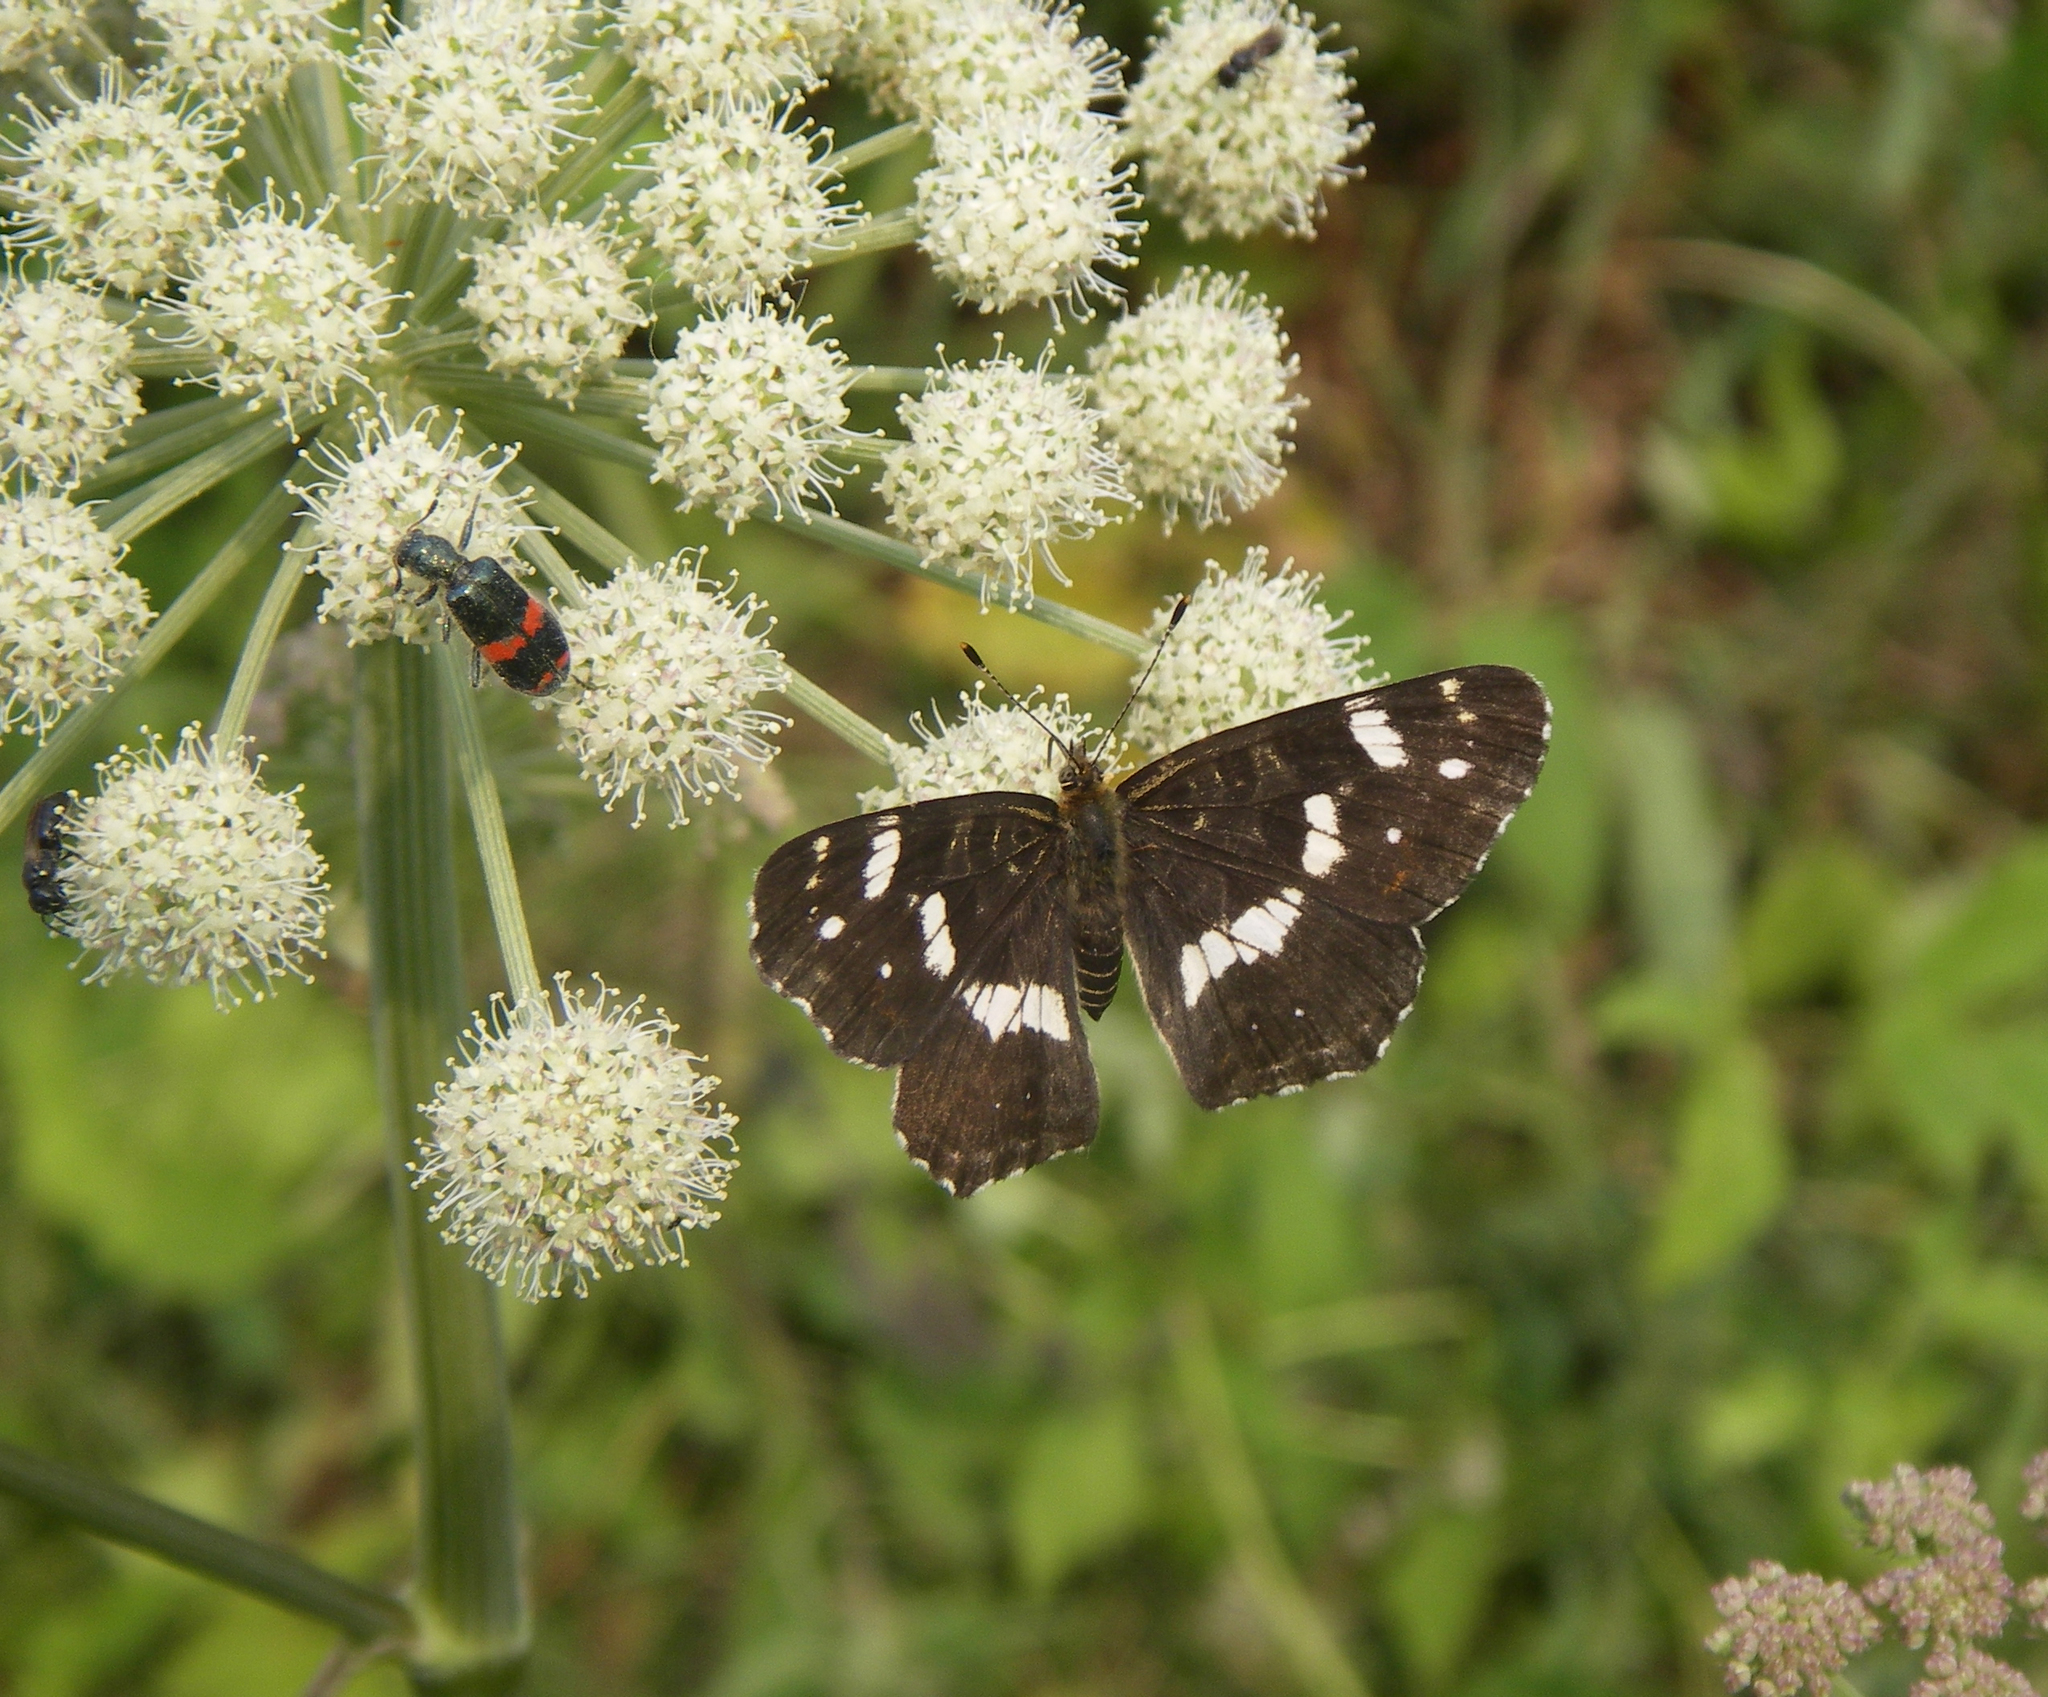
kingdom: Plantae
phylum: Tracheophyta
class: Magnoliopsida
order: Apiales
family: Apiaceae
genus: Angelica
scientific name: Angelica sylvestris
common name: Wild angelica
